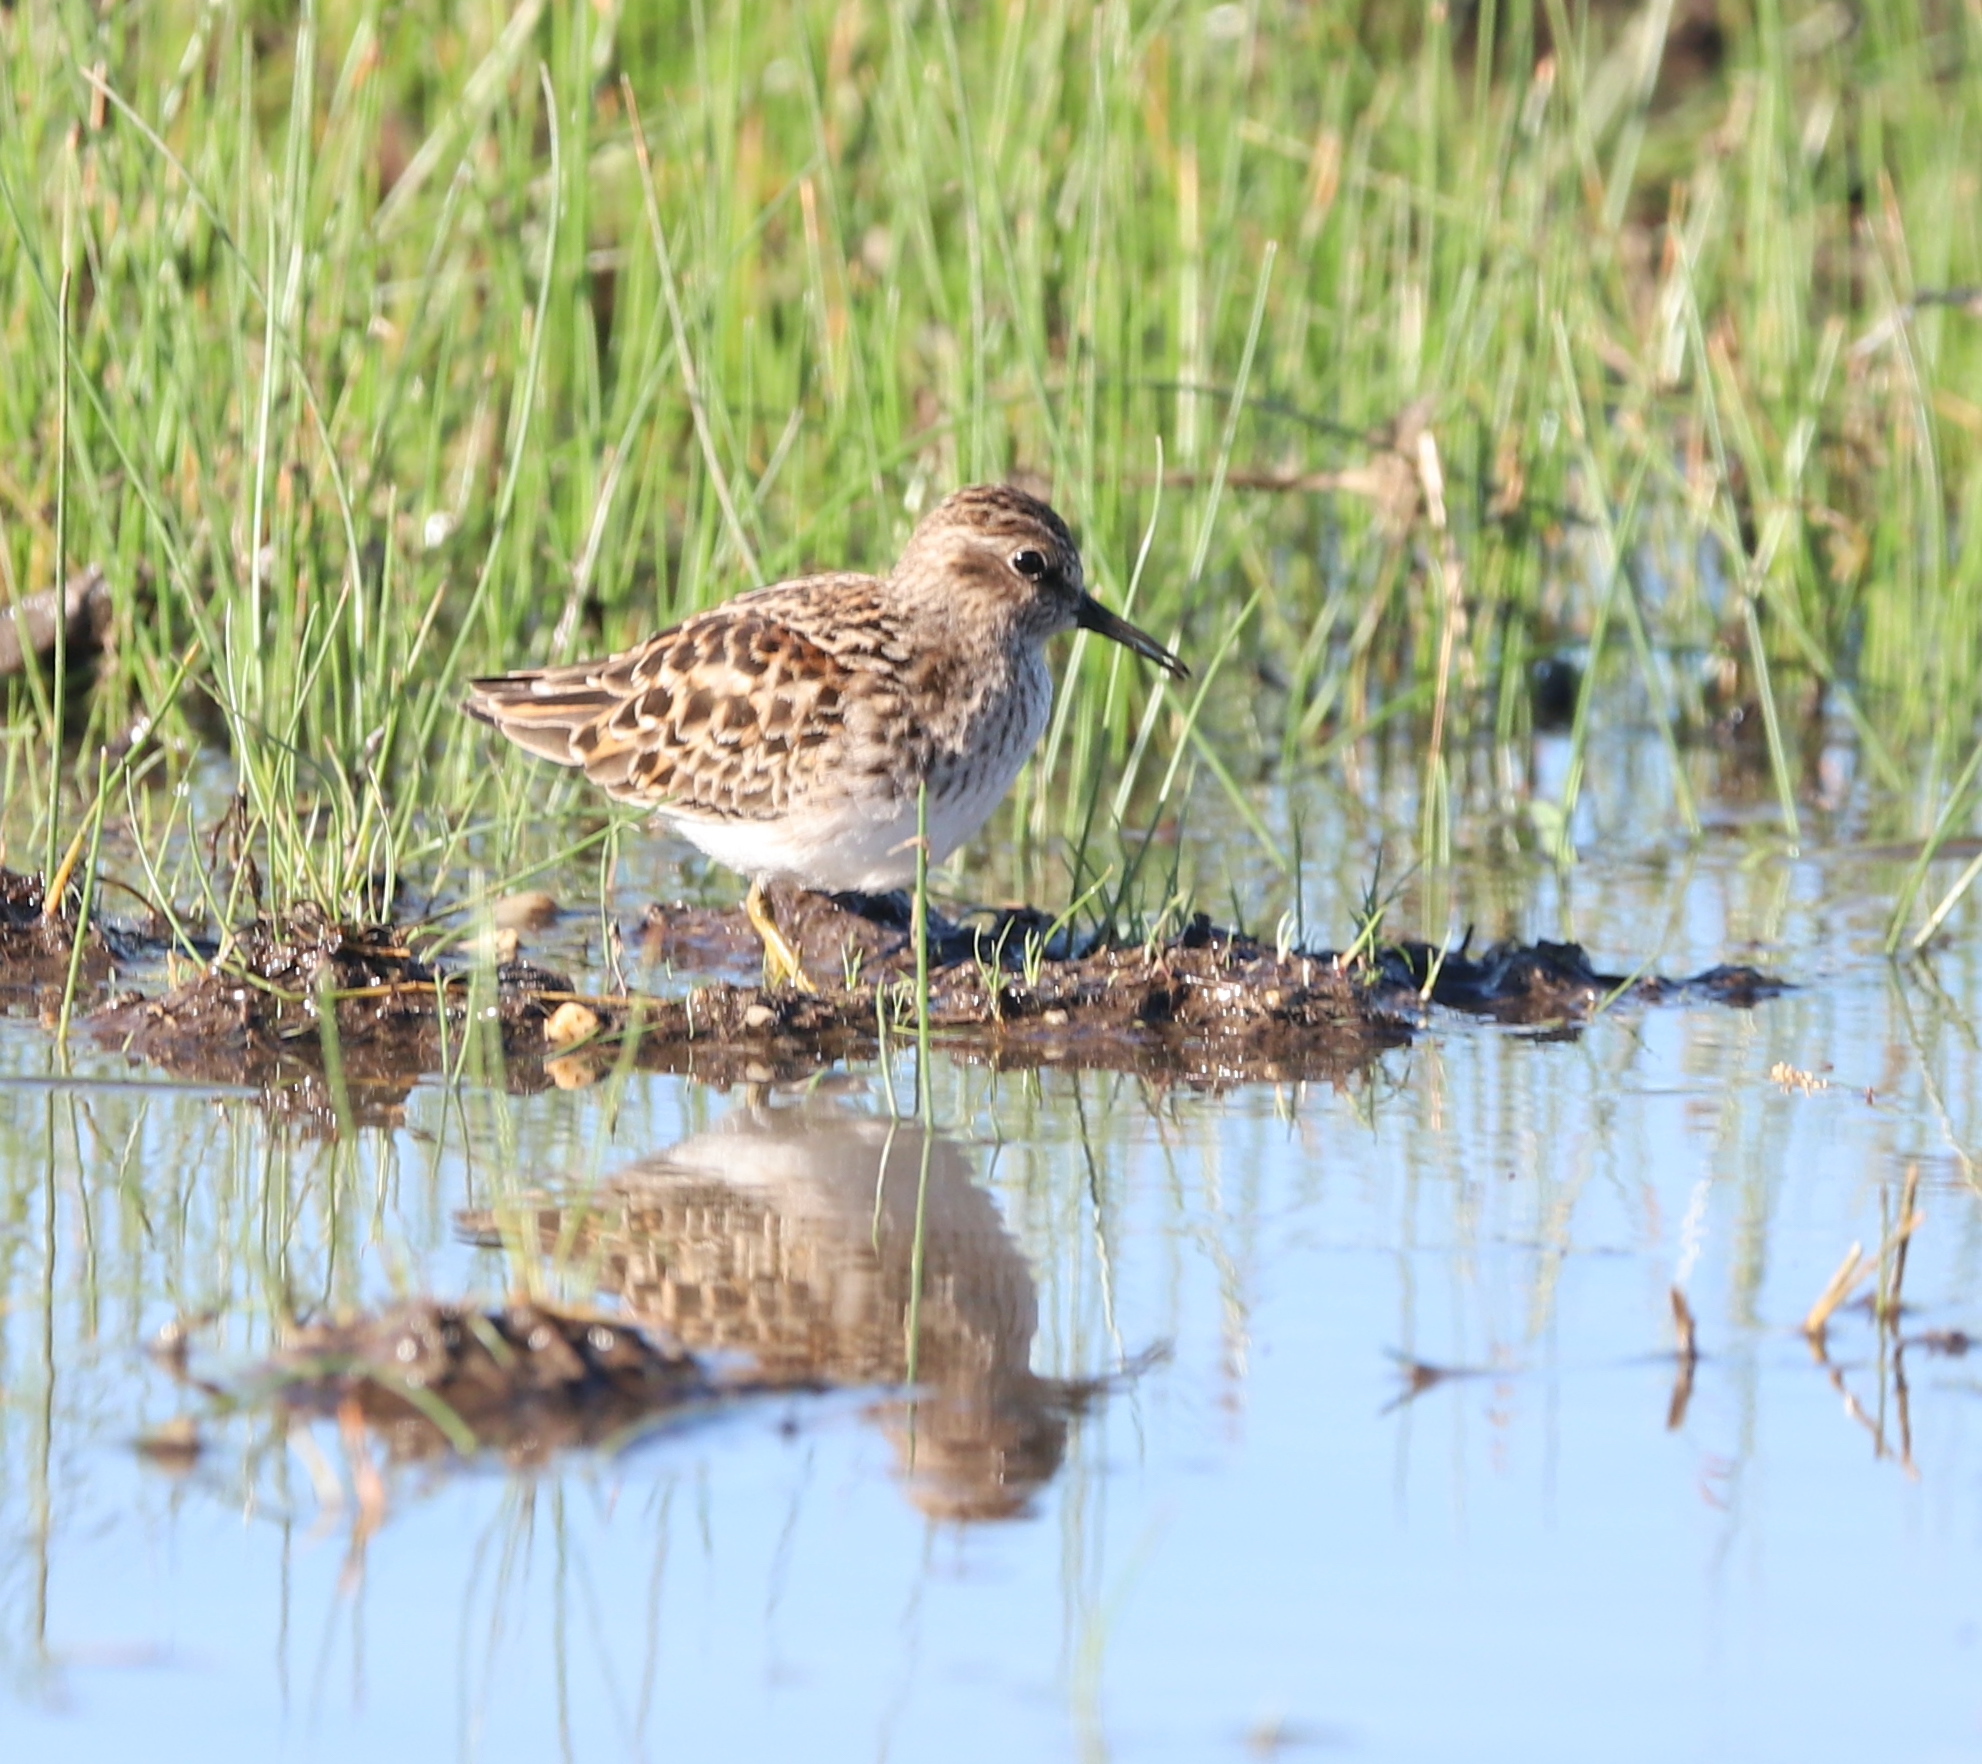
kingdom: Animalia
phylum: Chordata
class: Aves
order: Charadriiformes
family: Scolopacidae
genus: Calidris
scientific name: Calidris minutilla
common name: Least sandpiper
